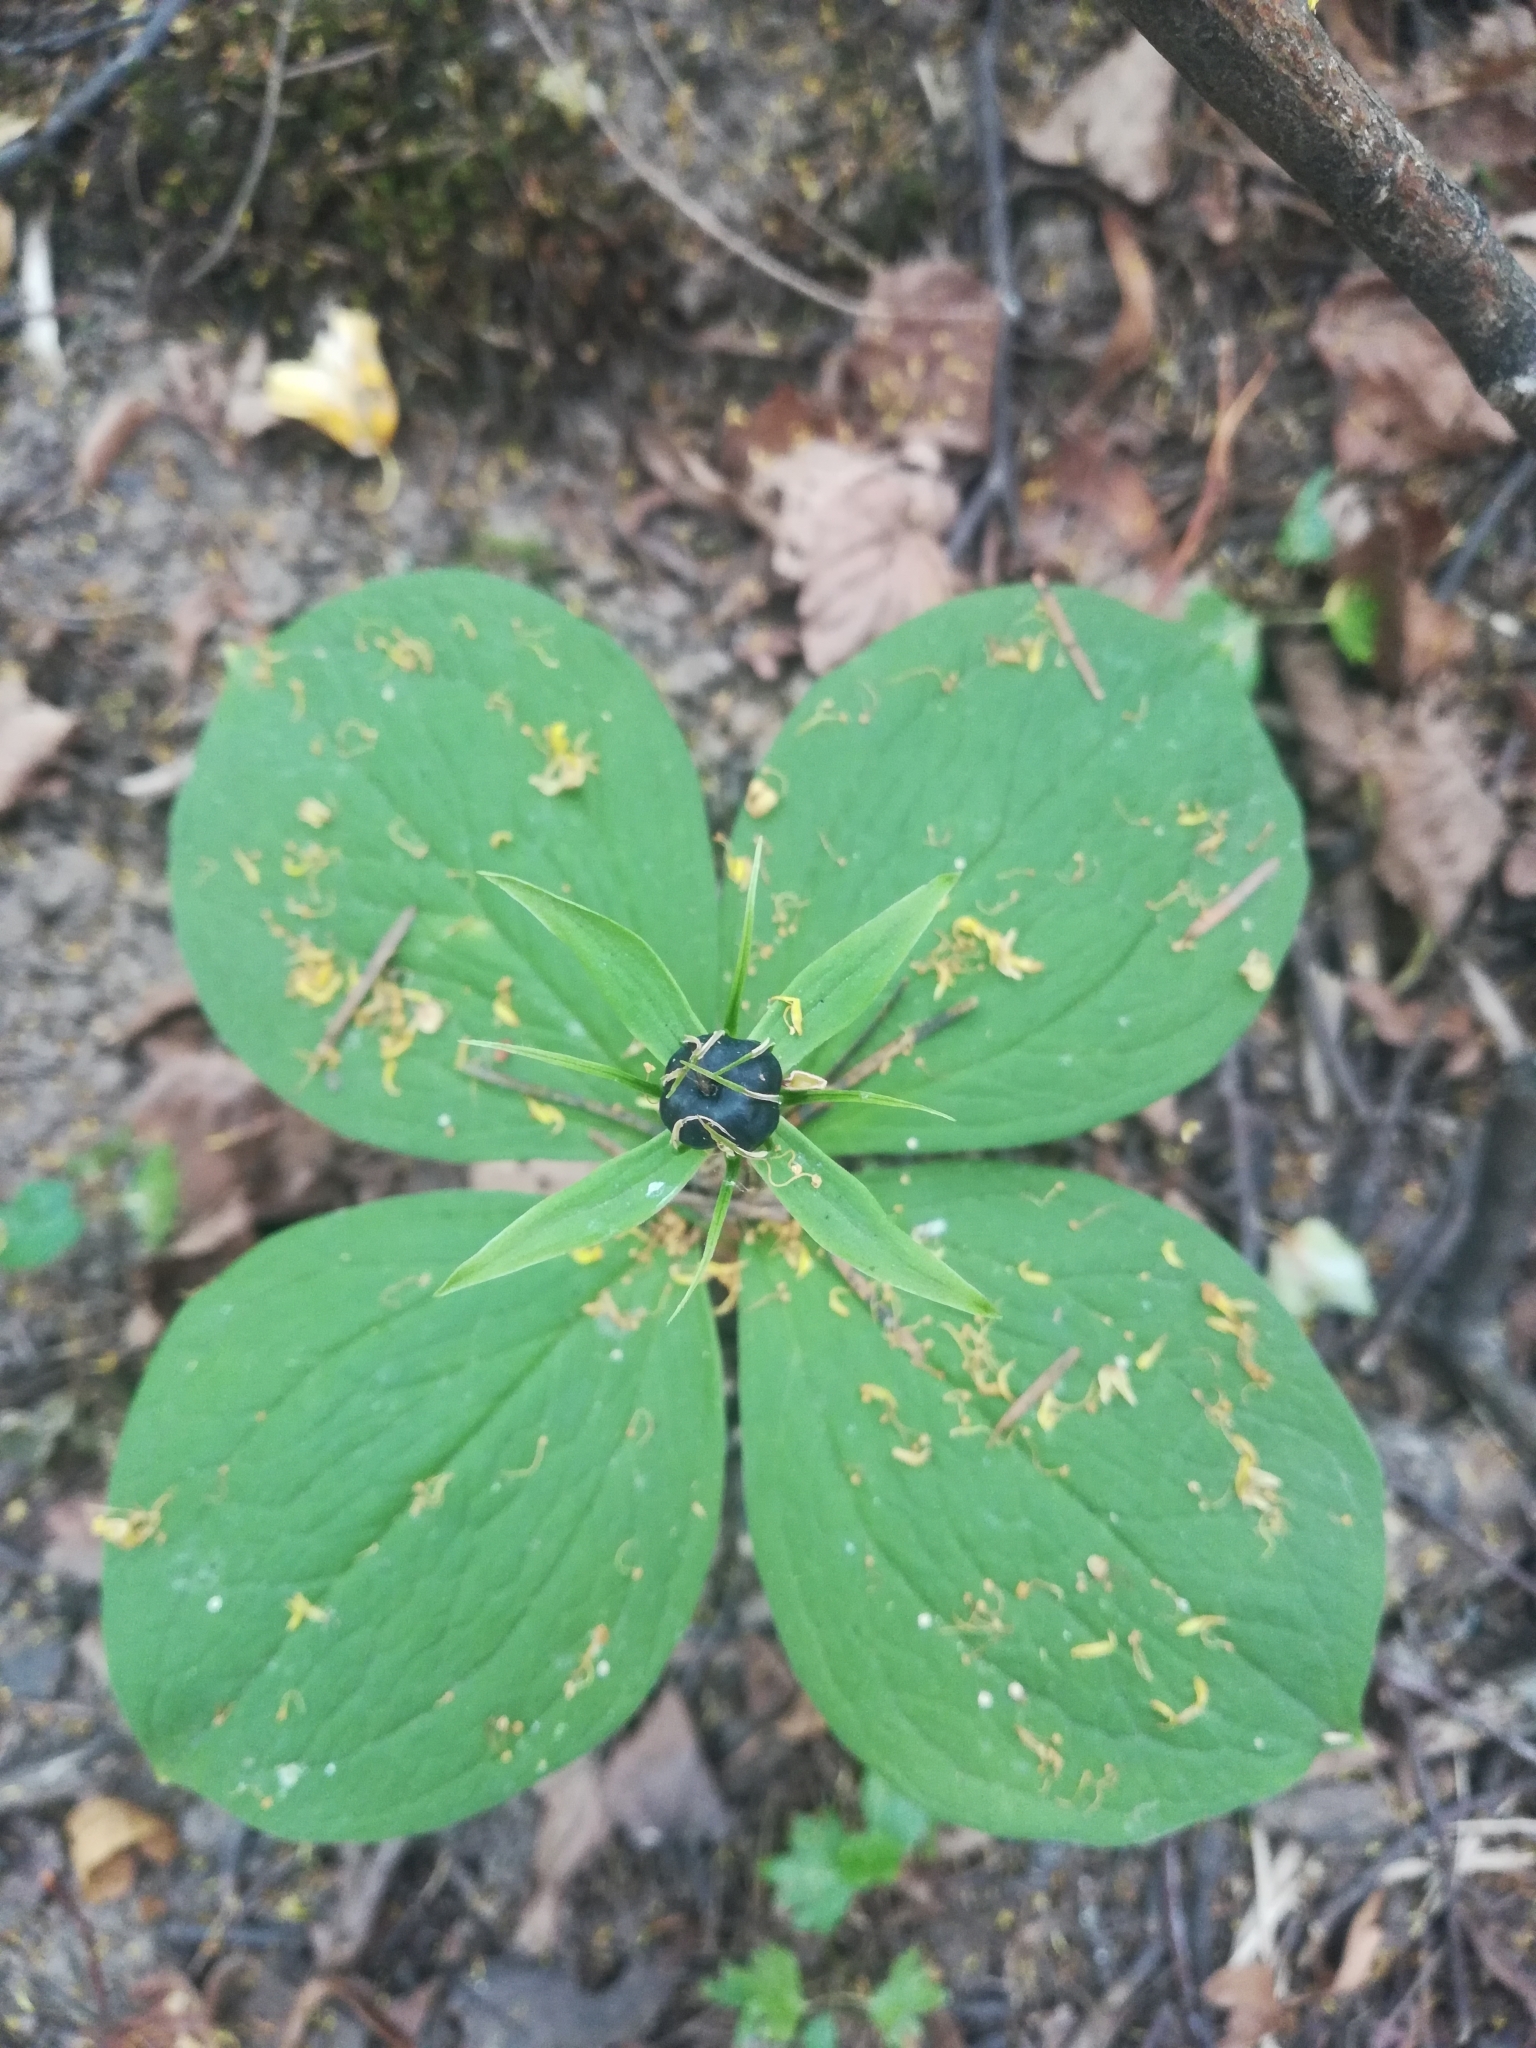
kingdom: Plantae
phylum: Tracheophyta
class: Liliopsida
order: Liliales
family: Melanthiaceae
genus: Paris
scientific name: Paris quadrifolia
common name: Herb-paris
